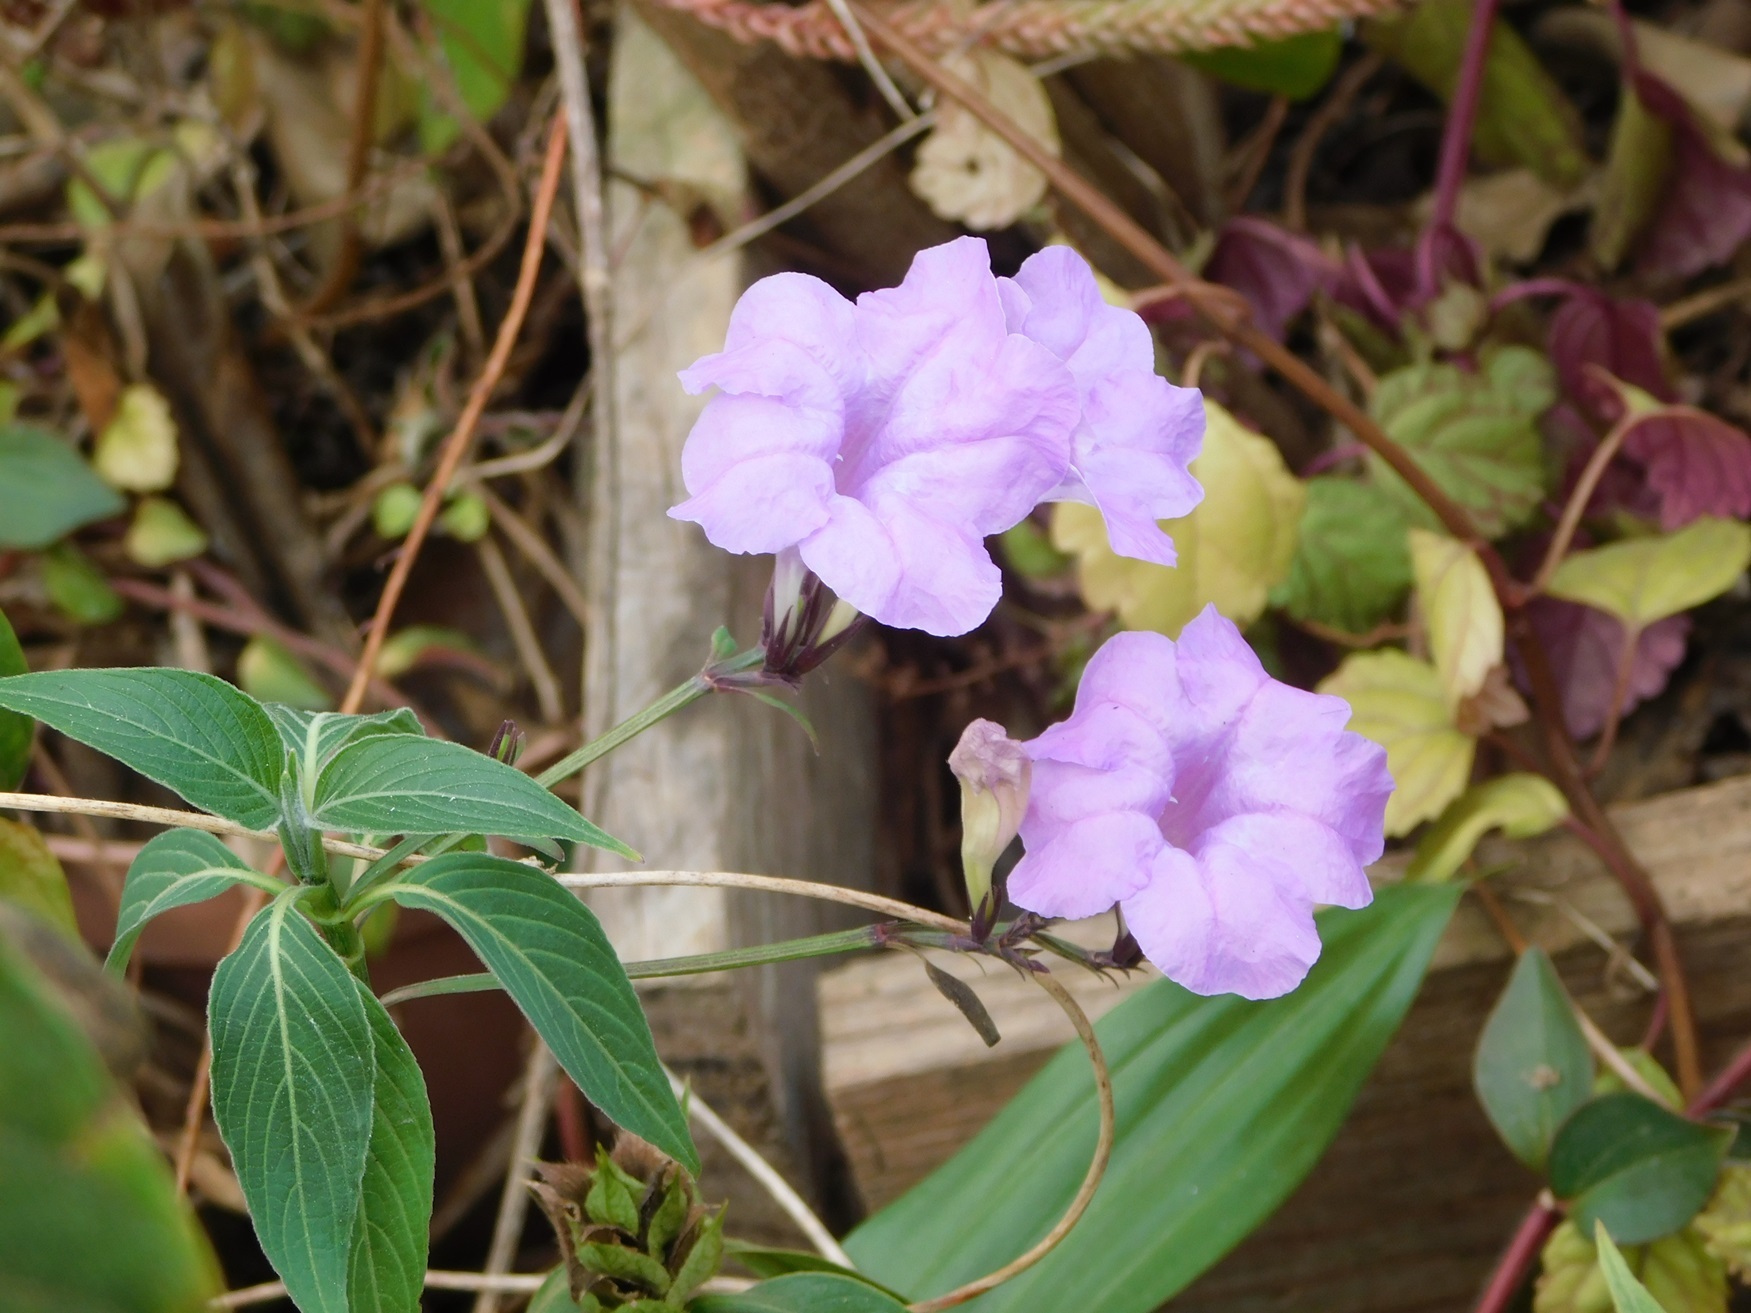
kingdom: Plantae
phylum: Tracheophyta
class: Magnoliopsida
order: Lamiales
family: Acanthaceae
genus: Ruellia
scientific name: Ruellia breedlovei
